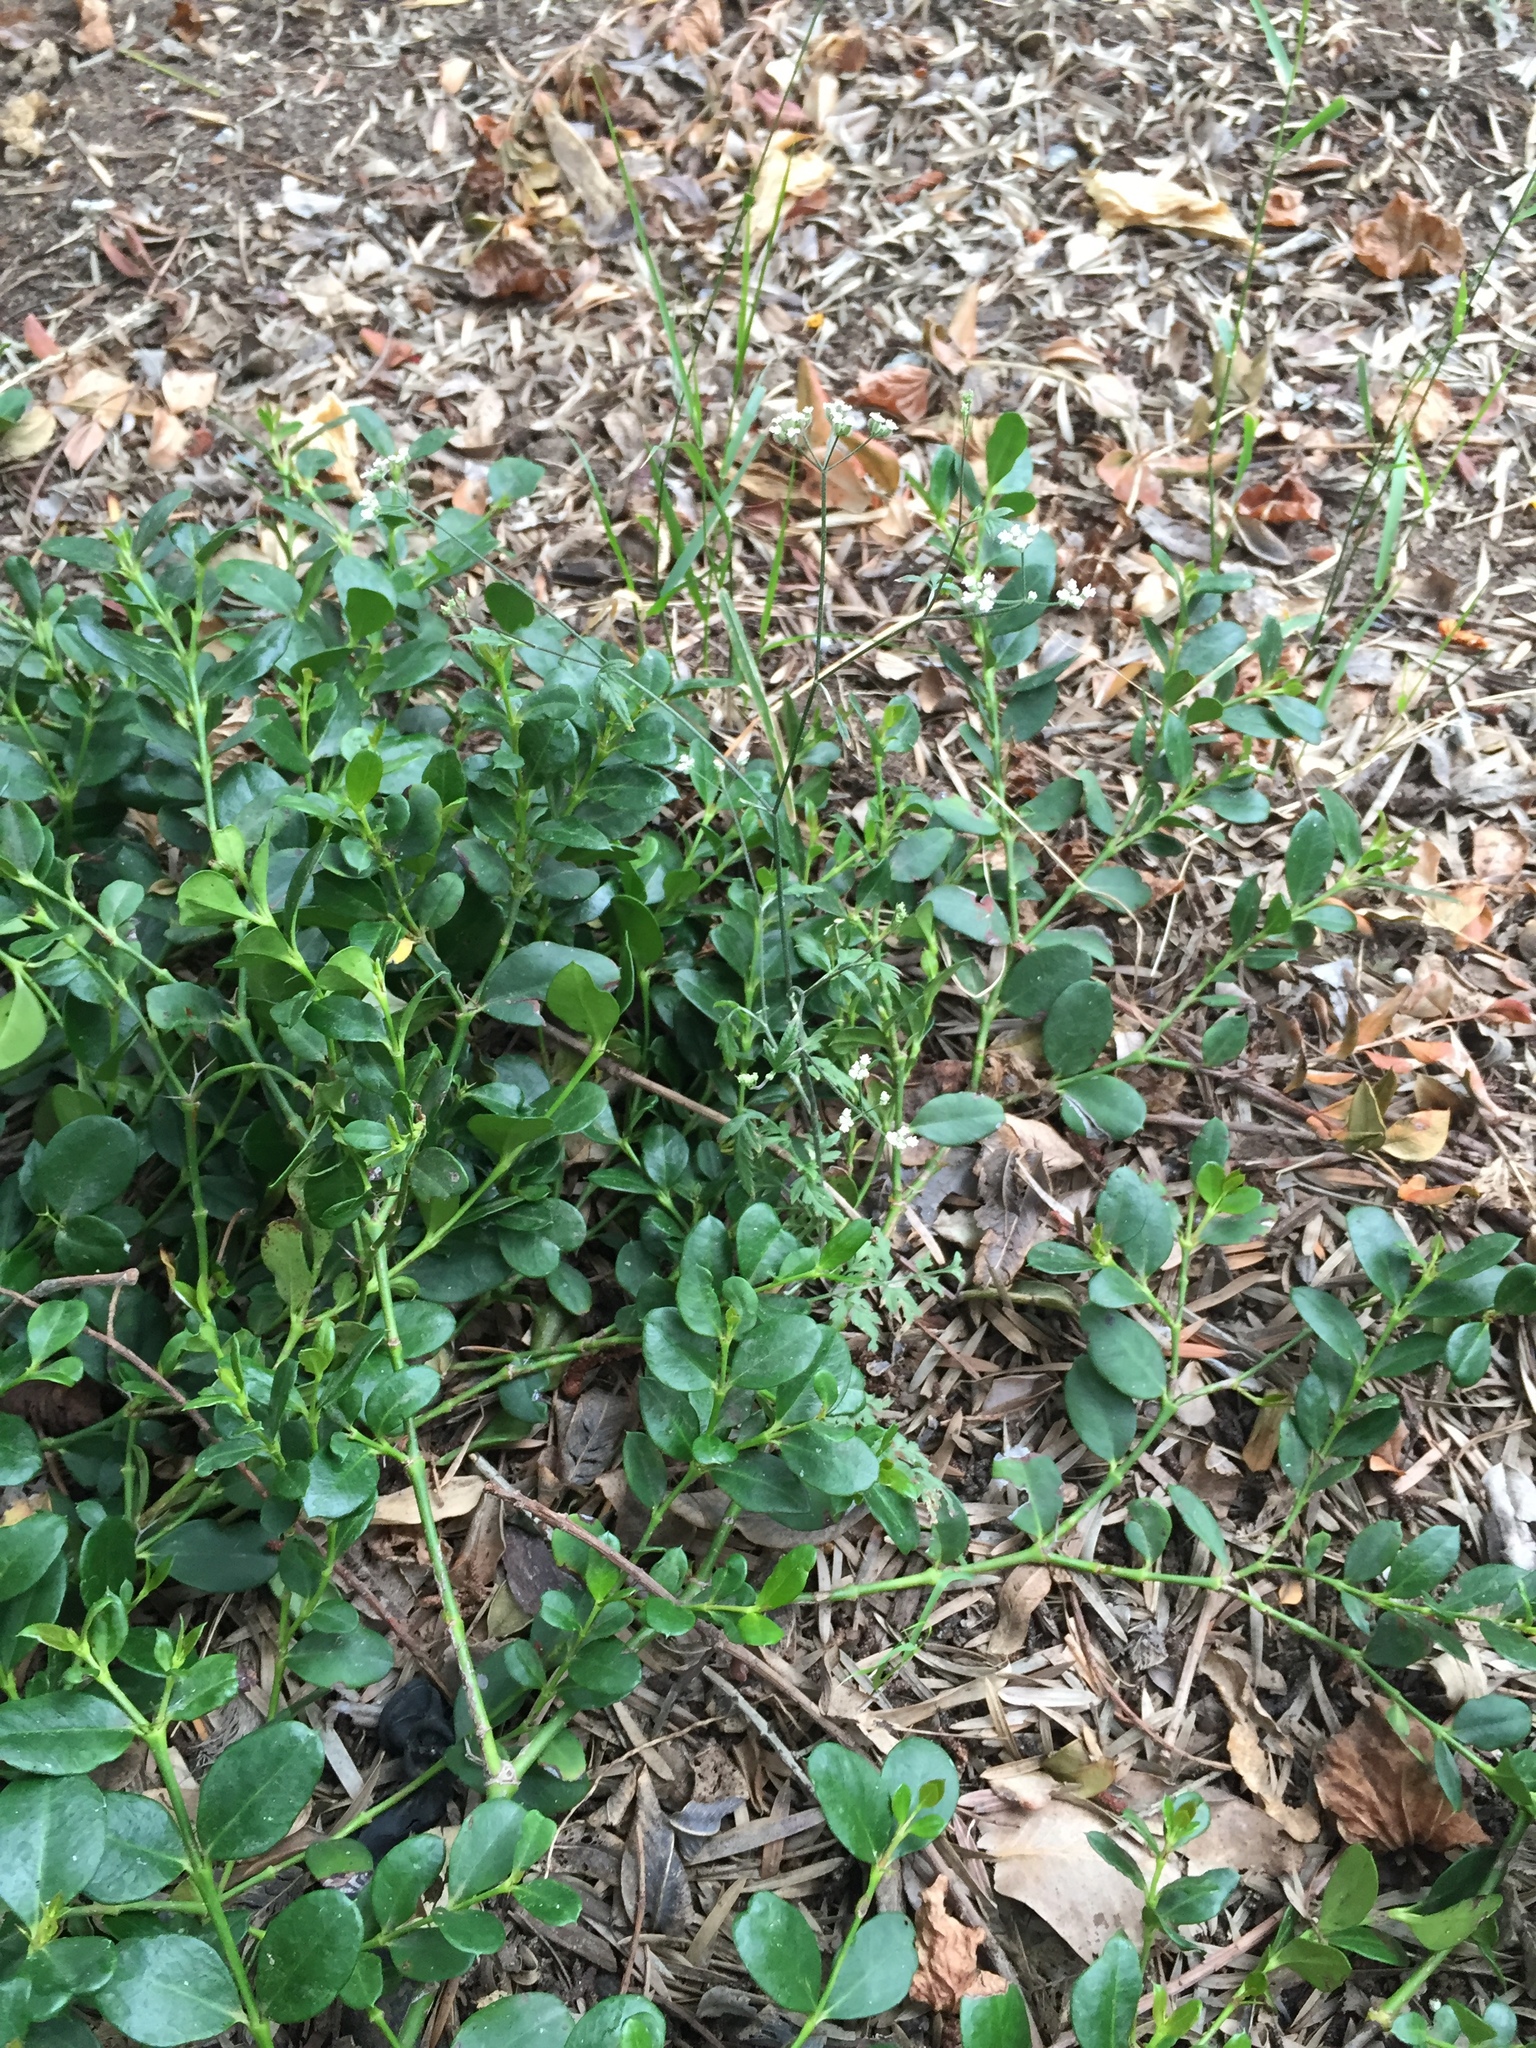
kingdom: Plantae
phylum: Tracheophyta
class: Magnoliopsida
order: Apiales
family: Apiaceae
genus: Torilis
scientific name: Torilis arvensis
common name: Spreading hedge-parsley
